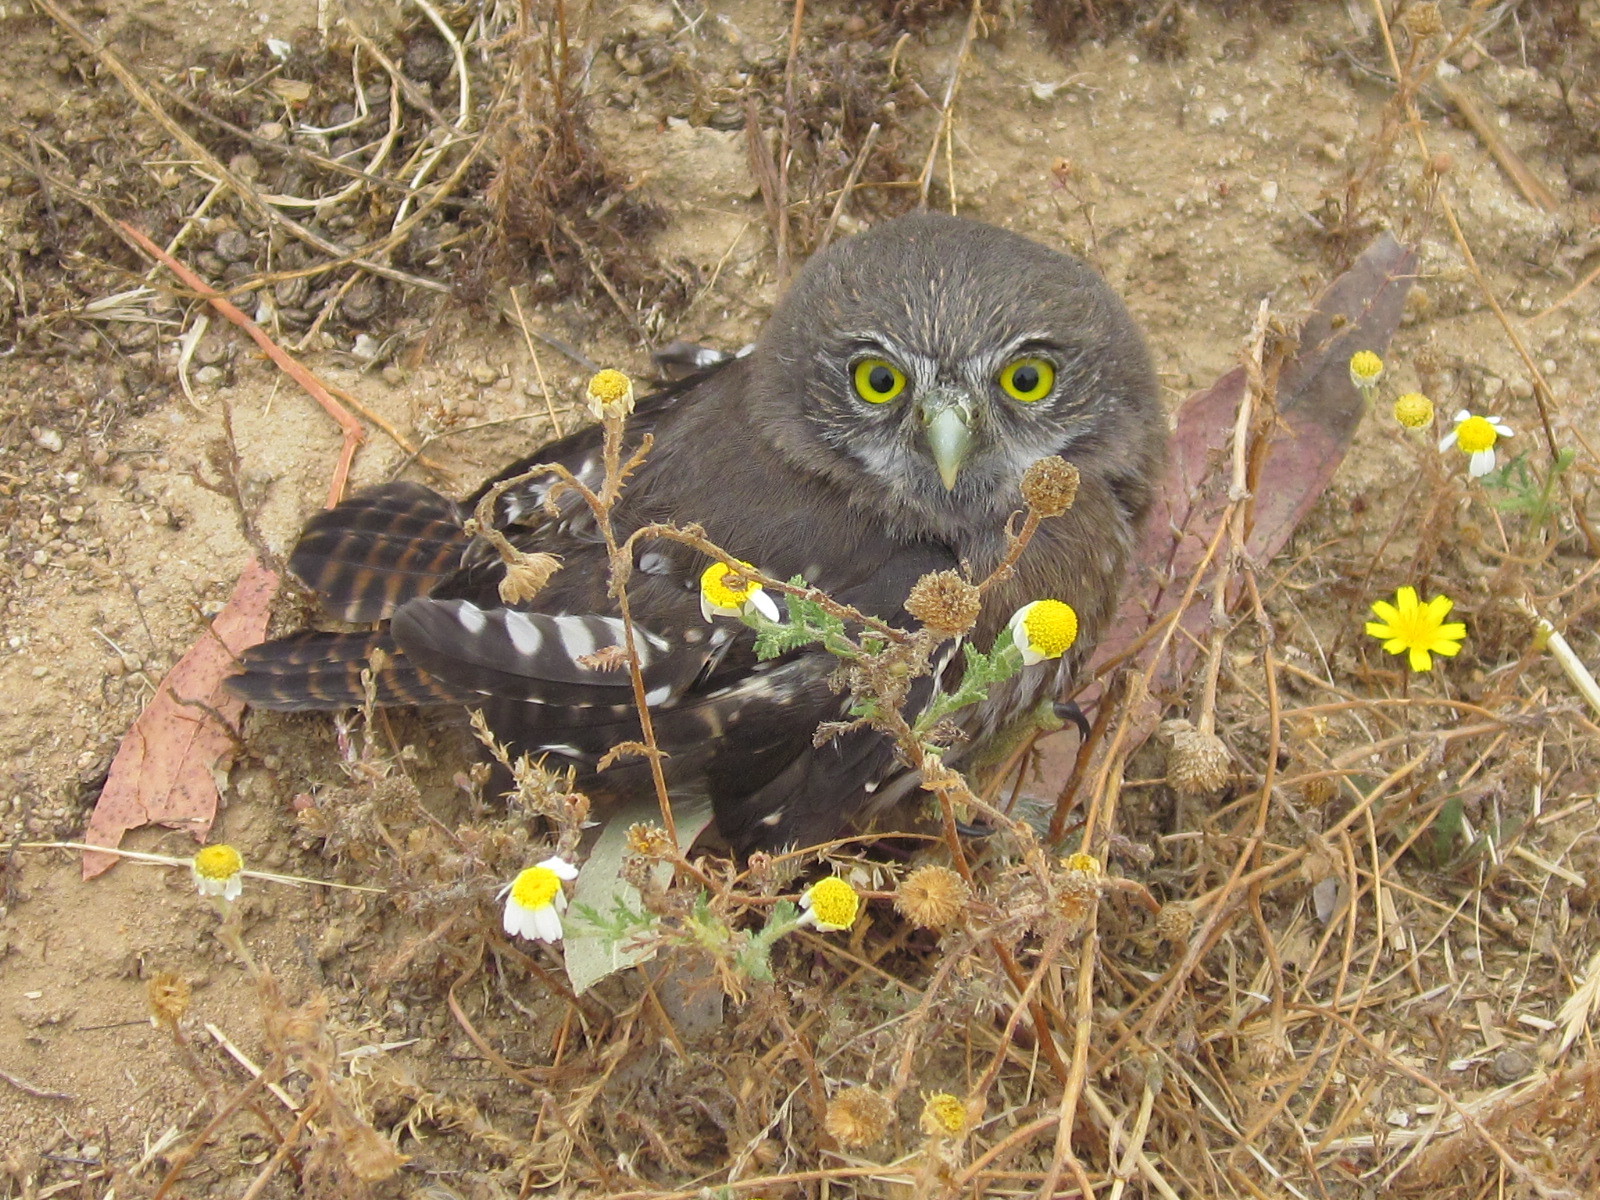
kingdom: Animalia
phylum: Chordata
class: Aves
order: Strigiformes
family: Strigidae
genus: Glaucidium
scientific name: Glaucidium nana
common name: Austral pygmy-owl
